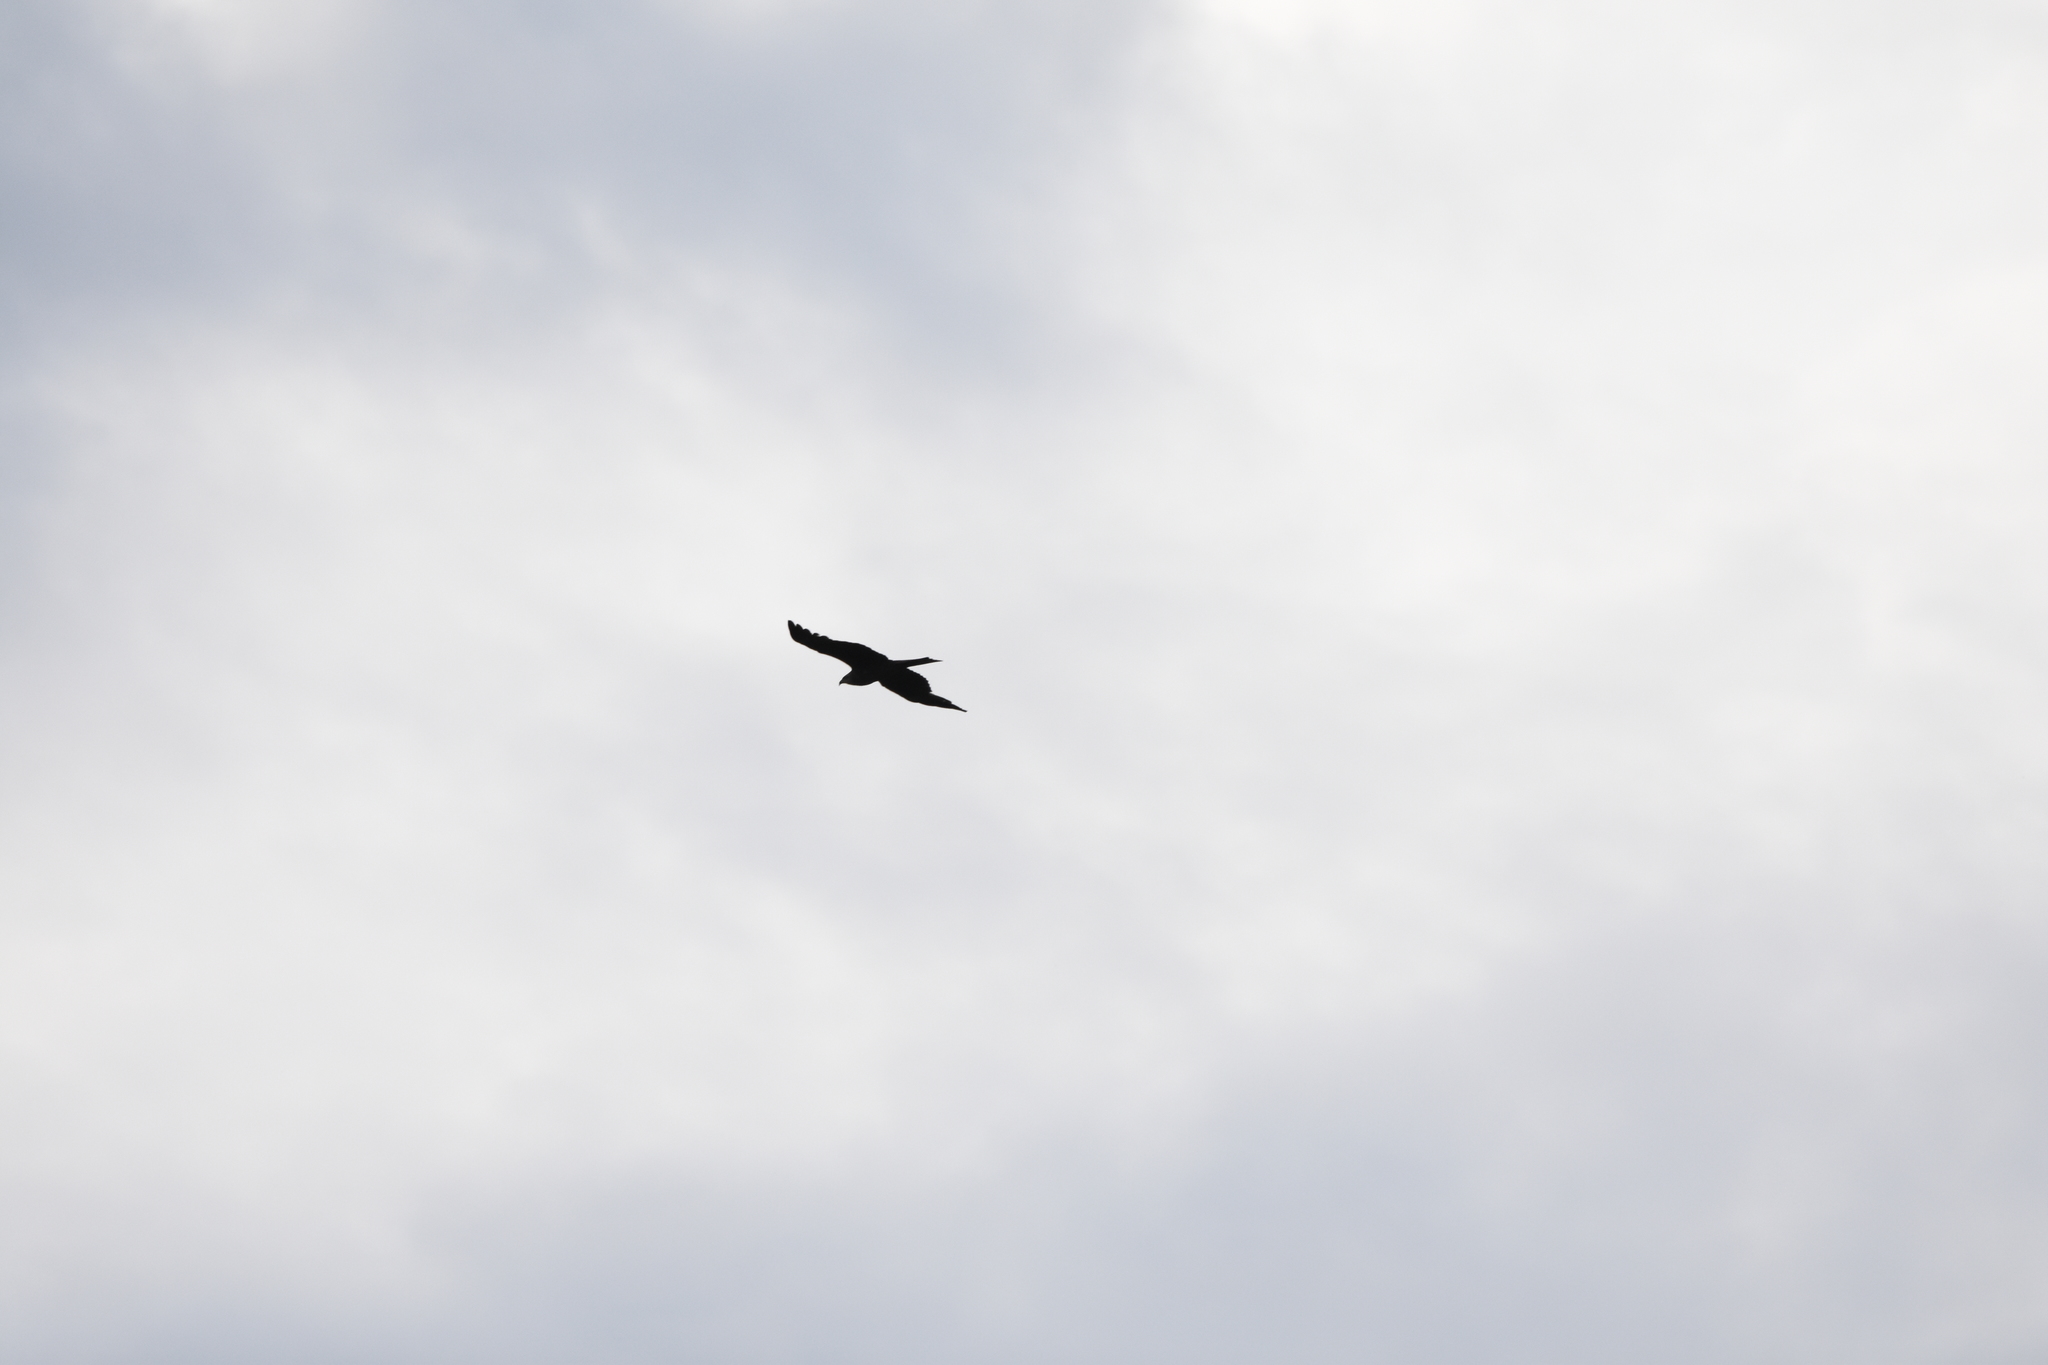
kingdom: Animalia
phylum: Chordata
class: Aves
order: Accipitriformes
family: Accipitridae
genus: Milvus
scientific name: Milvus migrans
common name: Black kite
